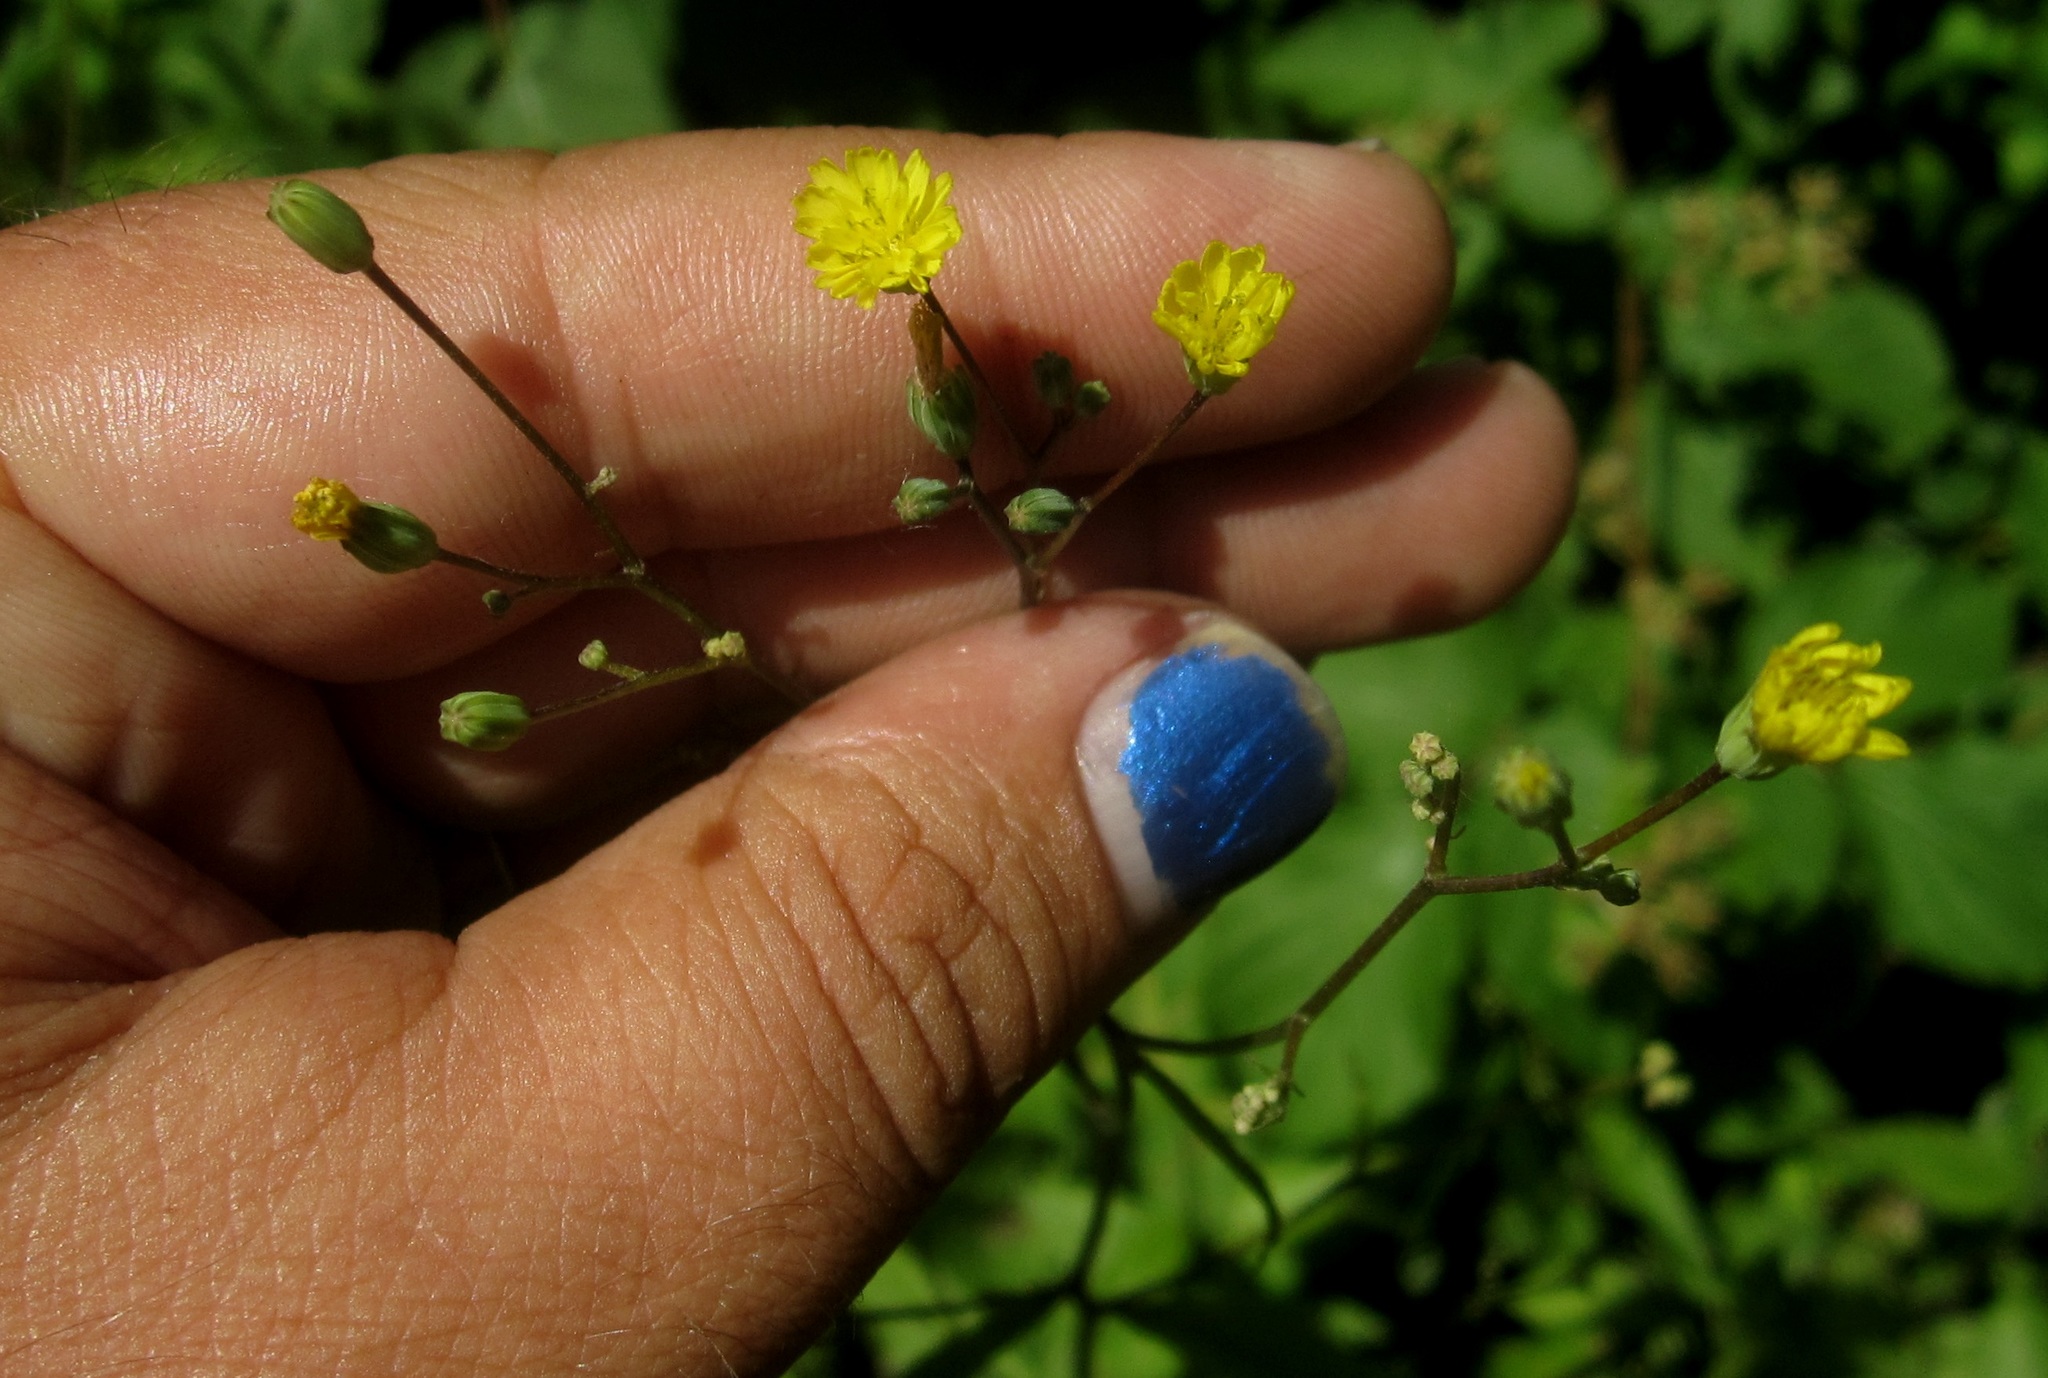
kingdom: Plantae
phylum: Tracheophyta
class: Magnoliopsida
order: Asterales
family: Asteraceae
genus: Lapsana
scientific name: Lapsana communis
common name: Nipplewort
